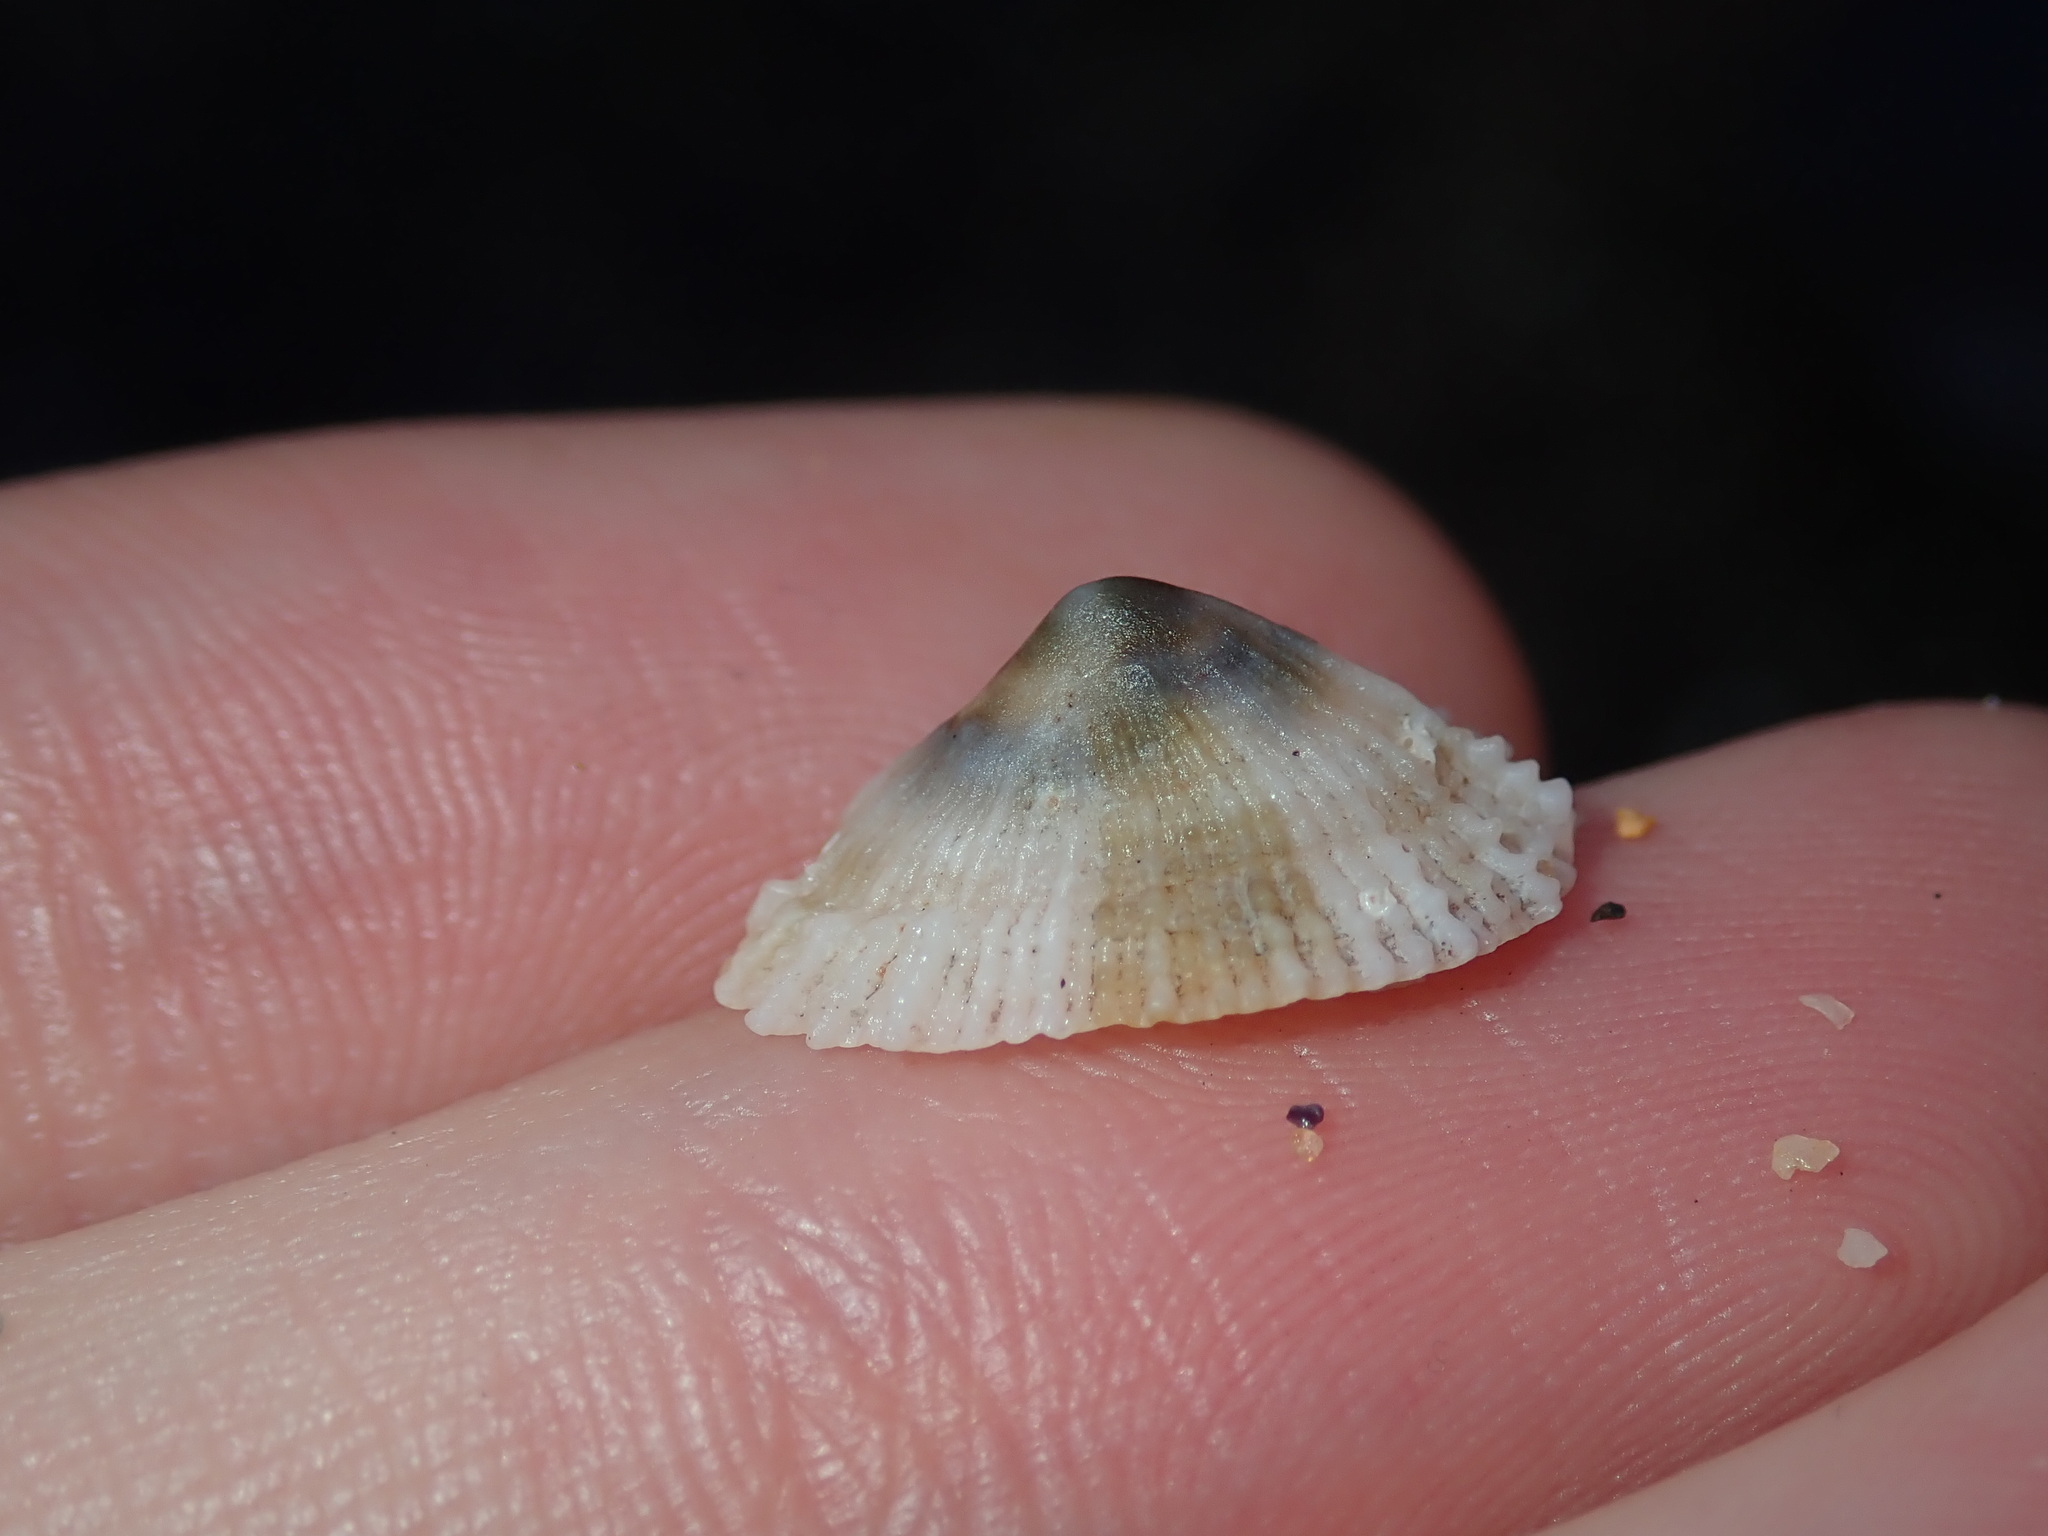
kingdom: Animalia
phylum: Mollusca
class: Gastropoda
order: Lepetellida
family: Fissurellidae
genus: Montfortula
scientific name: Montfortula rugosa
